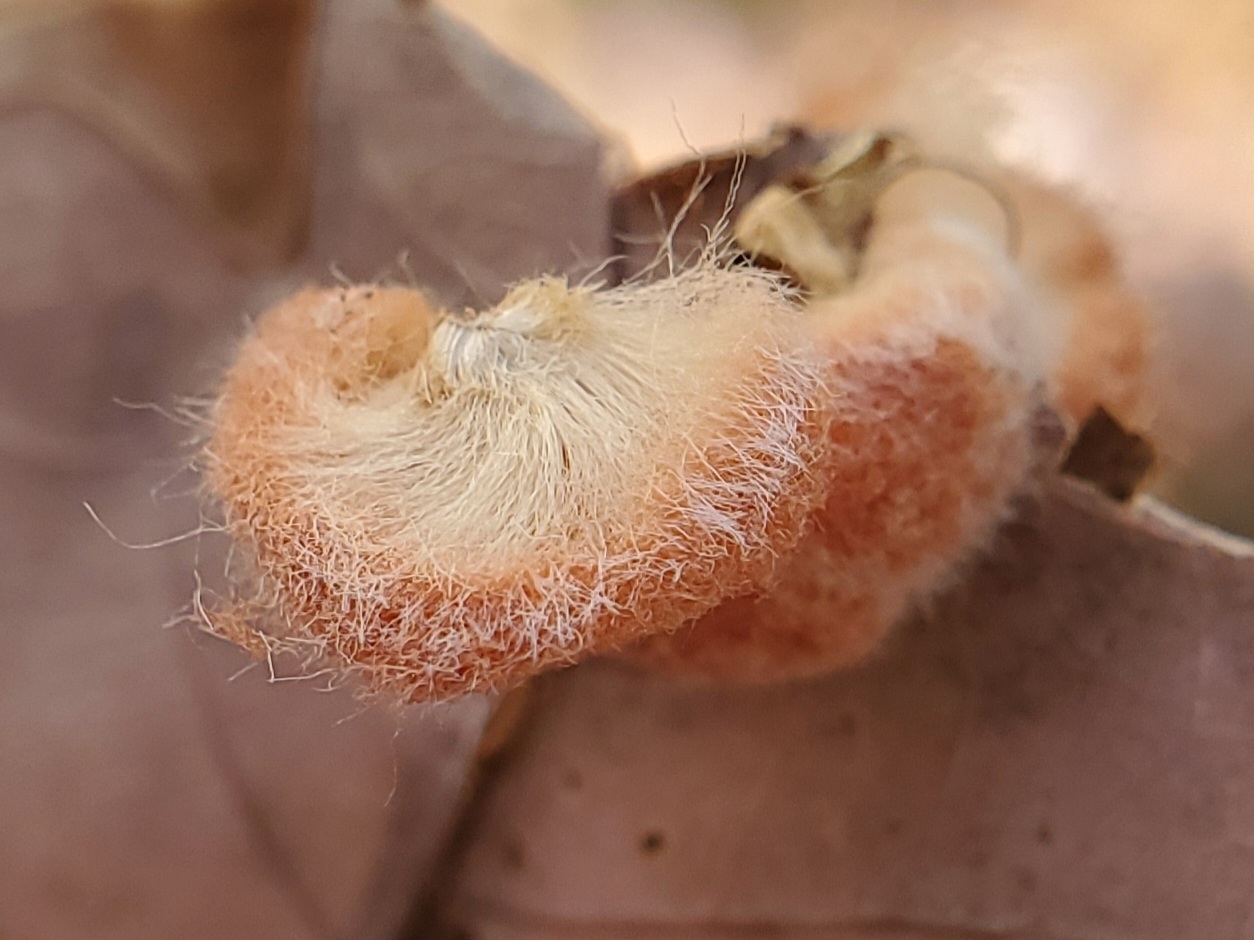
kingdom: Animalia
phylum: Arthropoda
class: Insecta
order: Hymenoptera
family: Cynipidae
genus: Andricus
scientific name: Andricus quercusflocci
